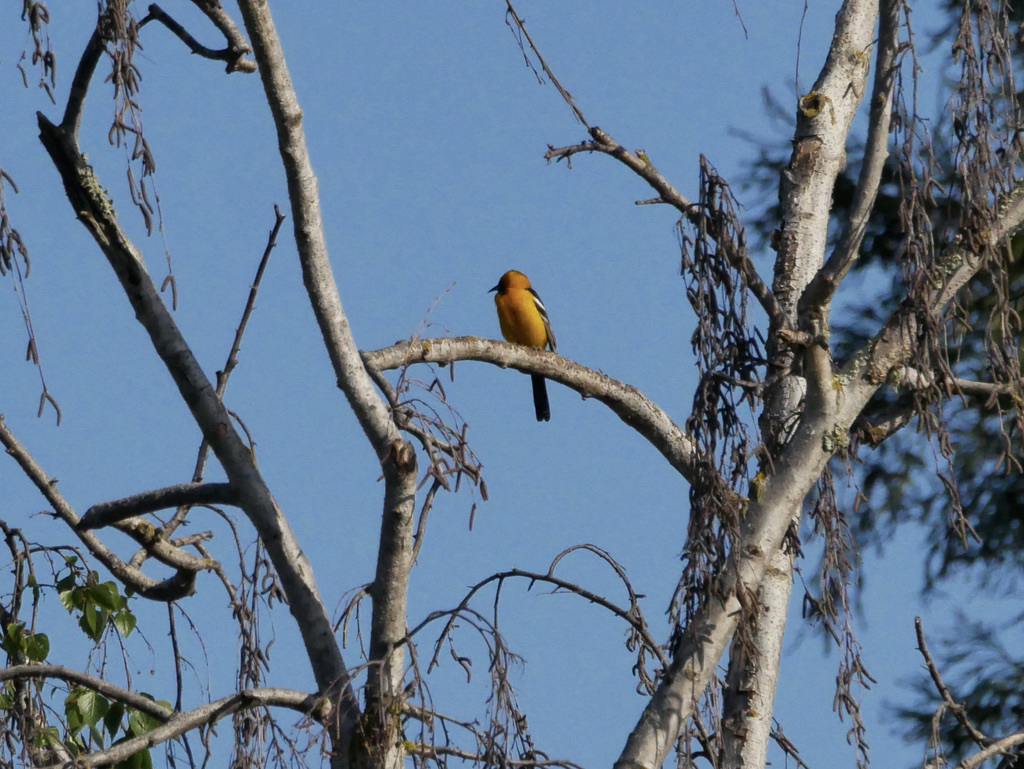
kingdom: Animalia
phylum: Chordata
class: Aves
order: Passeriformes
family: Icteridae
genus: Icterus
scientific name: Icterus cucullatus
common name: Hooded oriole
